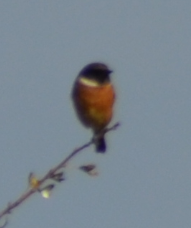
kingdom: Animalia
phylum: Chordata
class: Aves
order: Passeriformes
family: Muscicapidae
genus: Saxicola
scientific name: Saxicola rubicola
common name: European stonechat
